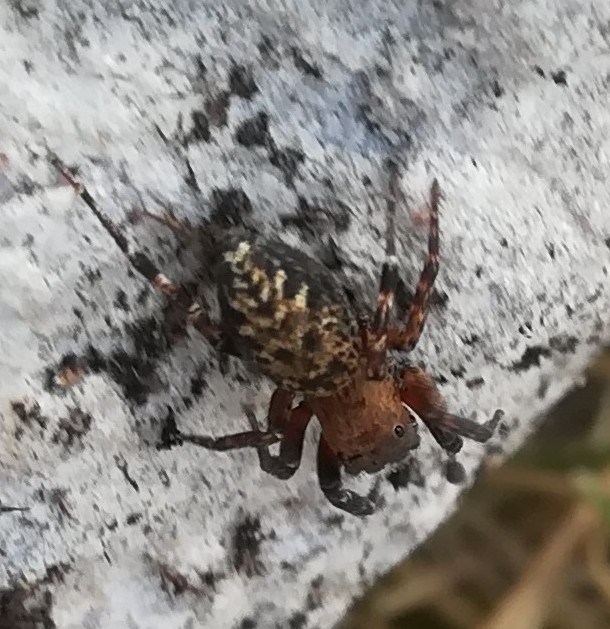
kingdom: Animalia
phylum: Arthropoda
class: Arachnida
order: Araneae
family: Salticidae
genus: Cyrba
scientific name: Cyrba algerina
